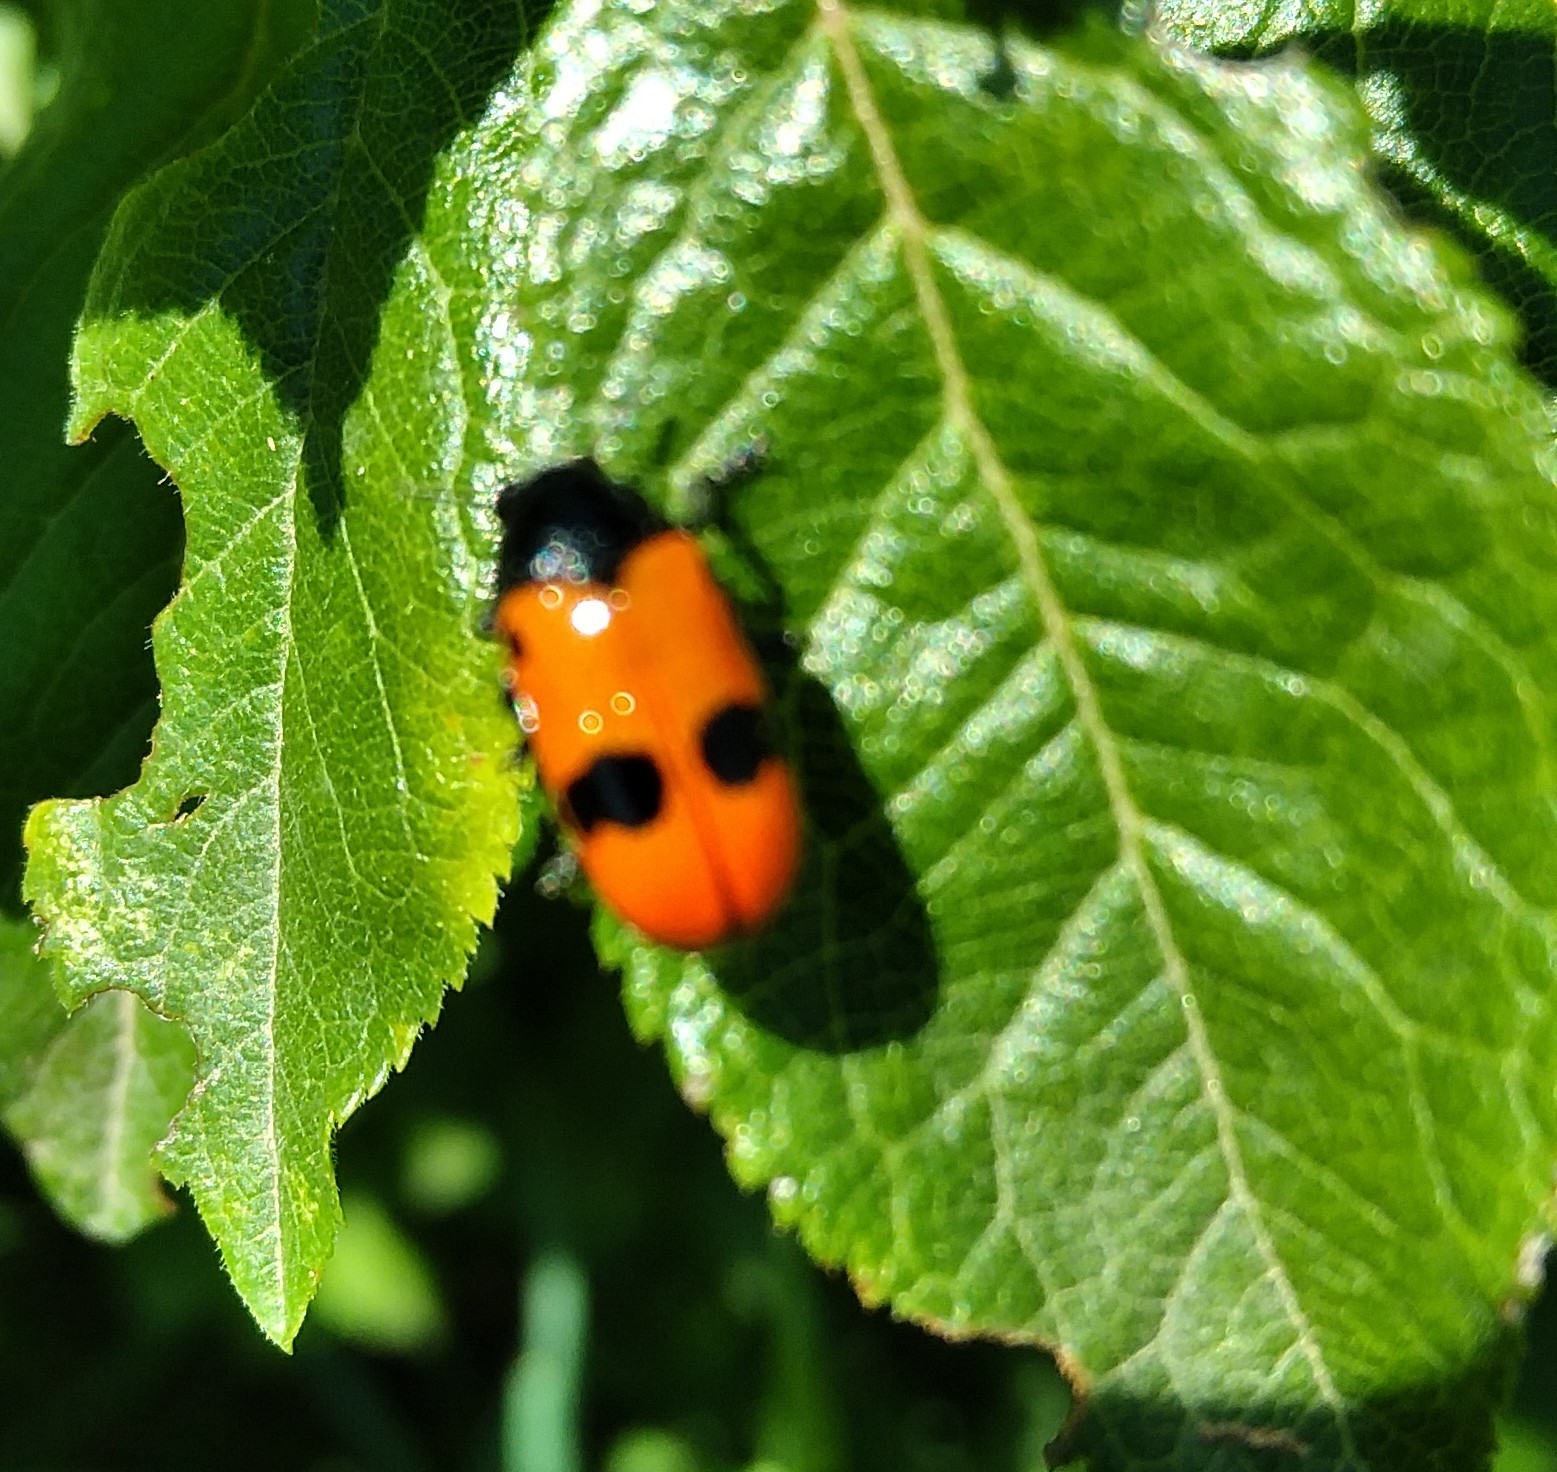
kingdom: Animalia
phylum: Arthropoda
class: Insecta
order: Coleoptera
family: Chrysomelidae
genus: Clytra
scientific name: Clytra laeviuscula
